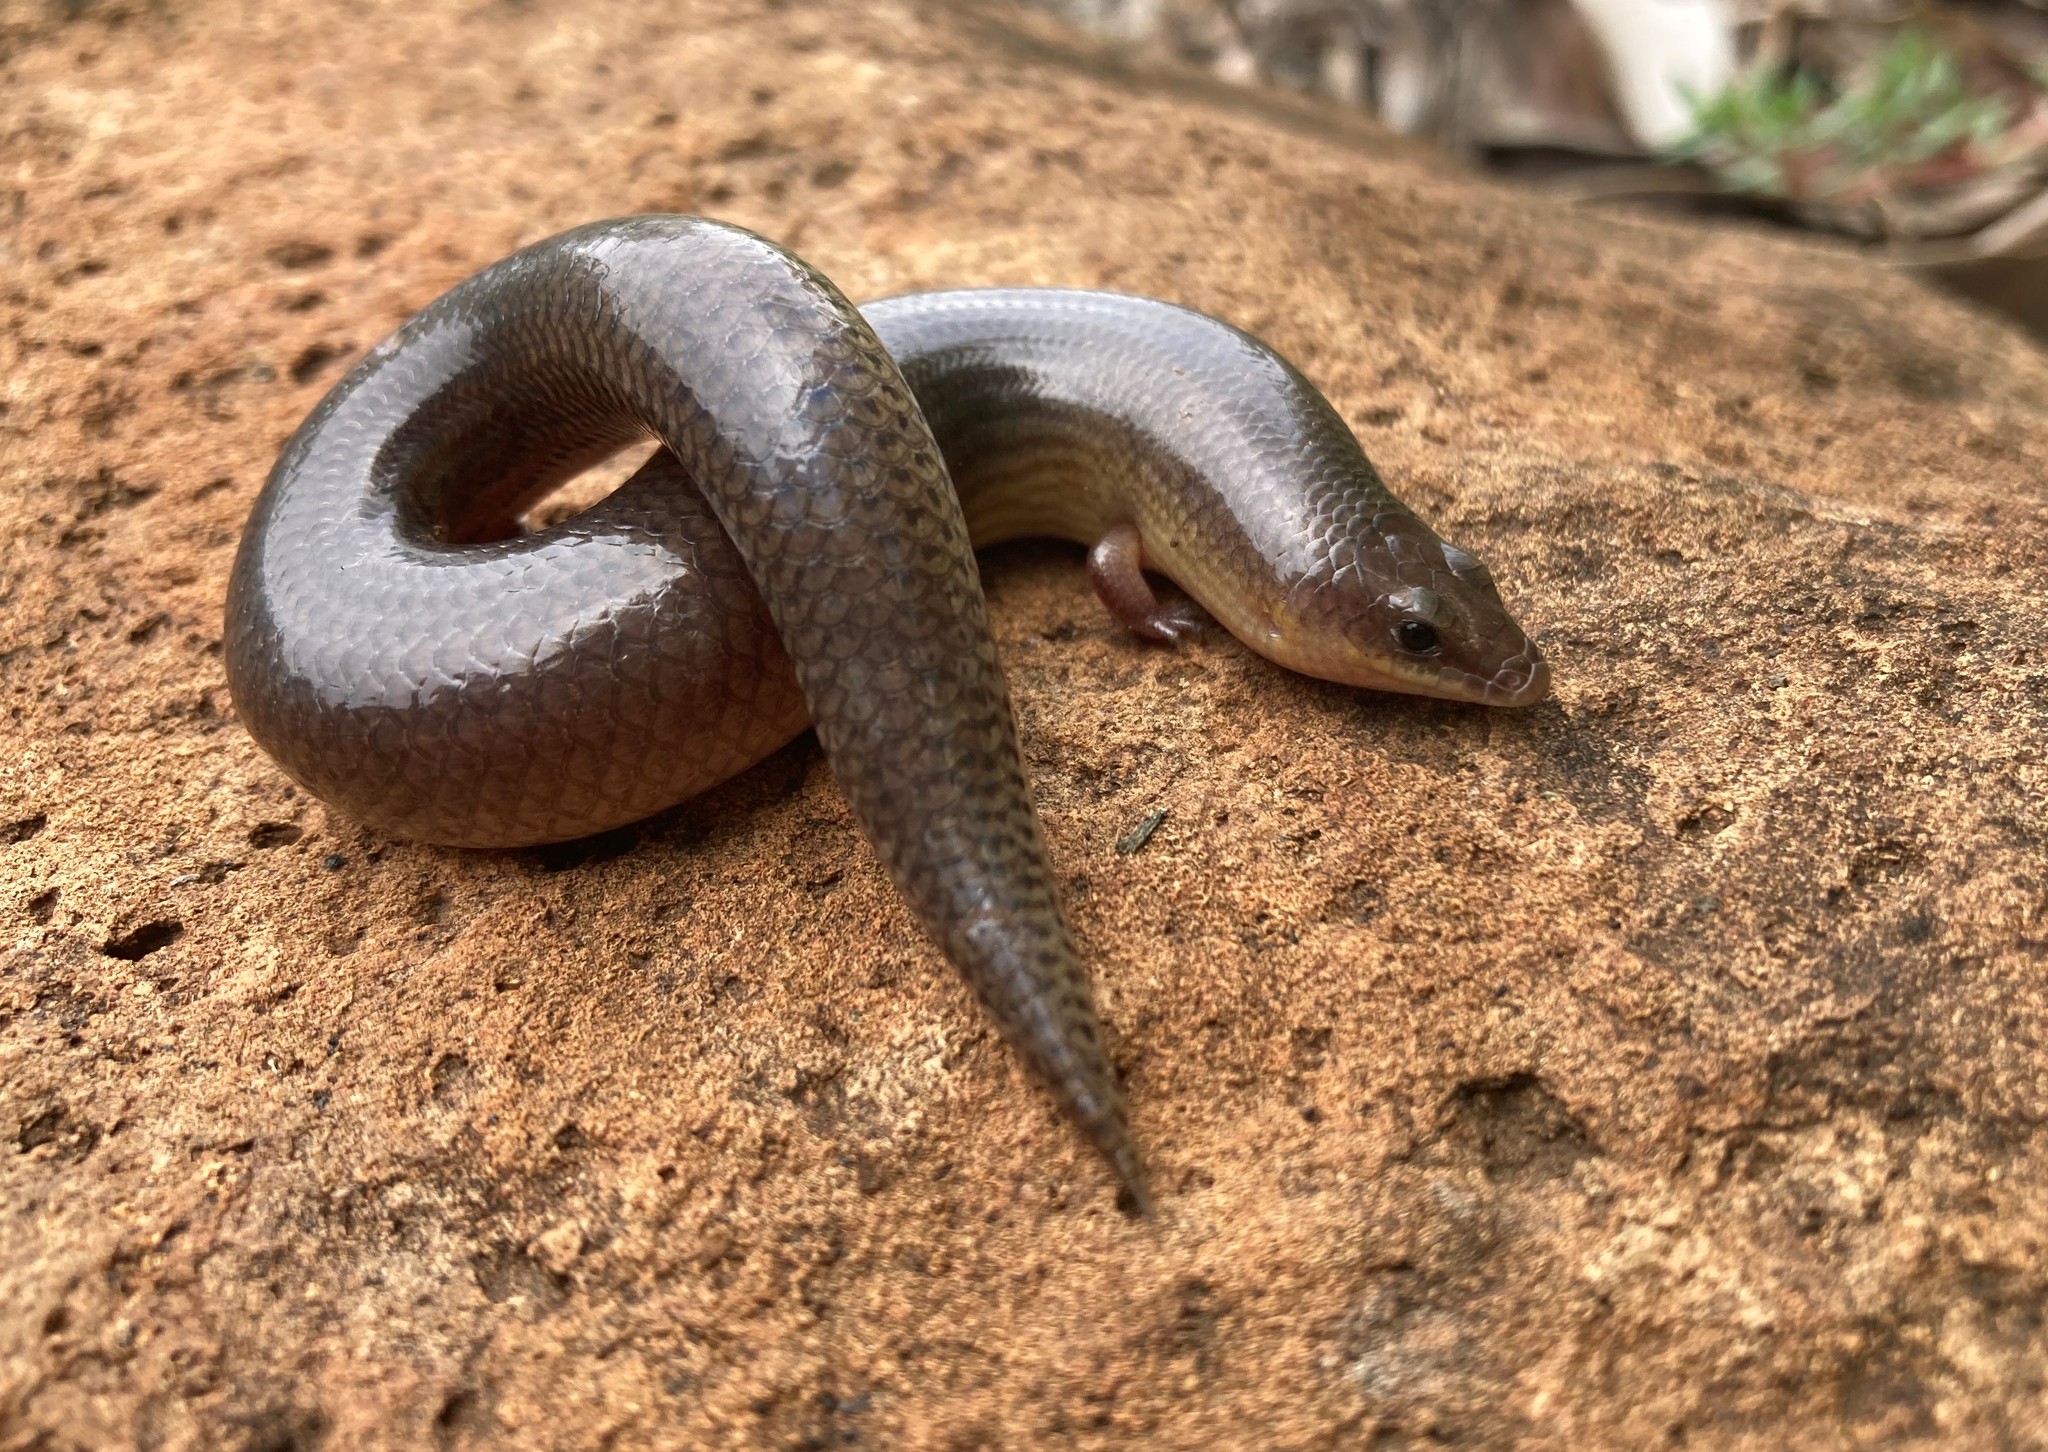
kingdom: Animalia
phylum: Chordata
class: Squamata
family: Scincidae
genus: Mochlus
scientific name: Mochlus sundevallii
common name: Peters' eyelid skink
